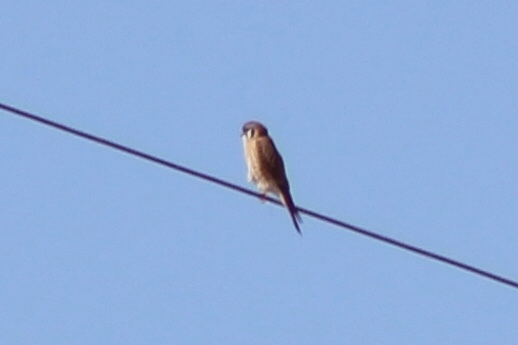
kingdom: Animalia
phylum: Chordata
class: Aves
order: Falconiformes
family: Falconidae
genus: Falco
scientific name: Falco sparverius
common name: American kestrel
